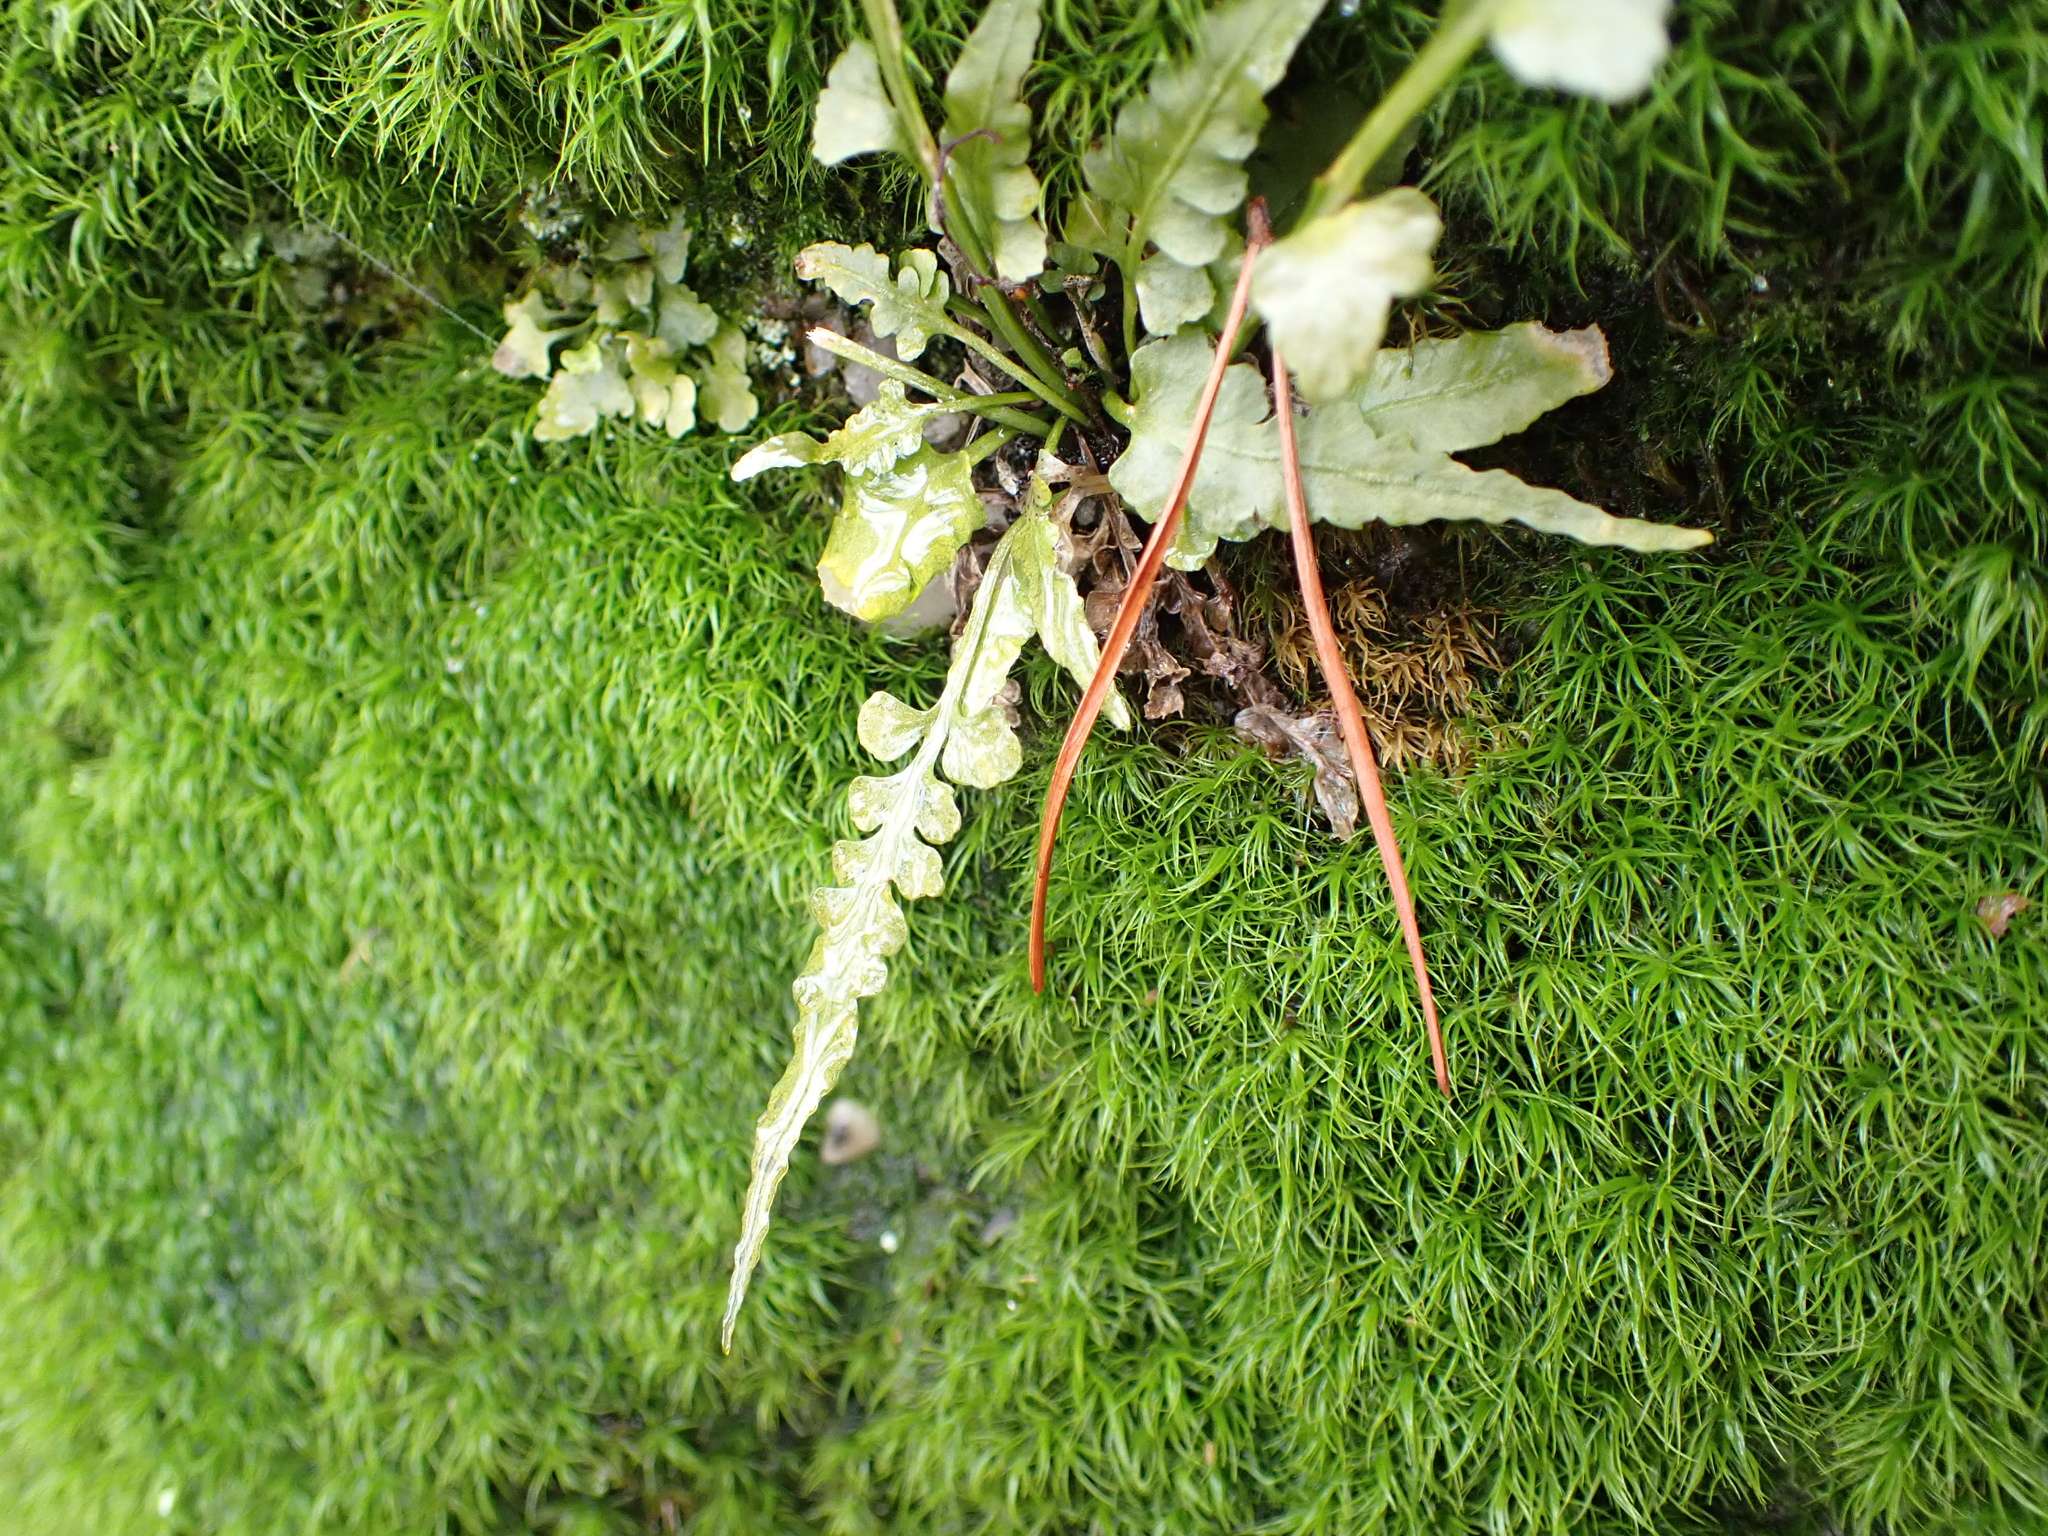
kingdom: Plantae
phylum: Tracheophyta
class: Polypodiopsida
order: Polypodiales
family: Aspleniaceae
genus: Asplenium
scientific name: Asplenium pinnatifidum
